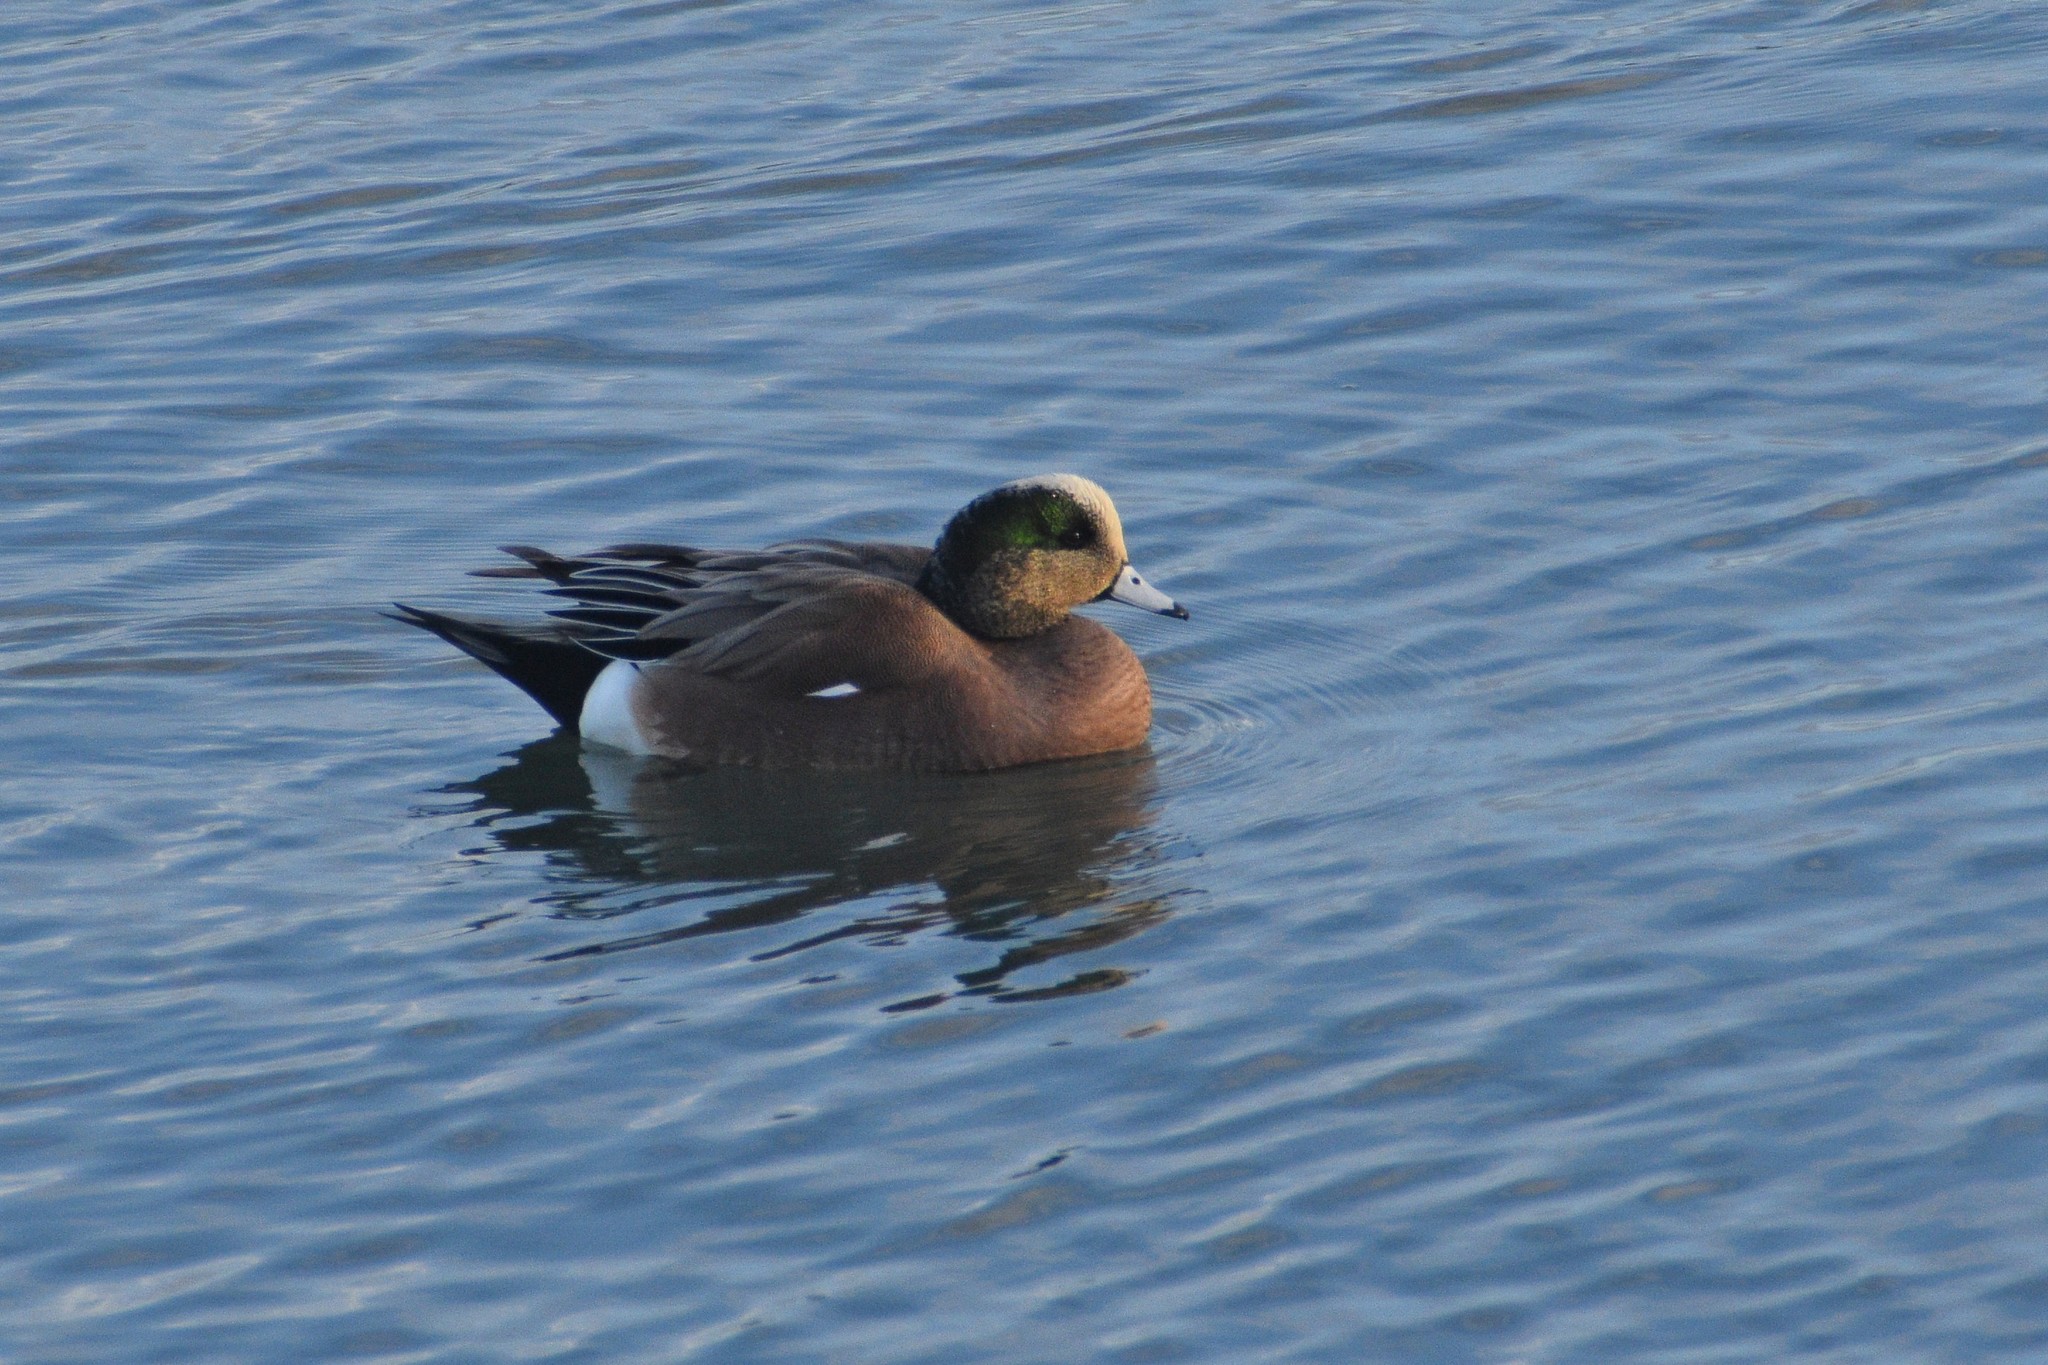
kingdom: Animalia
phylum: Chordata
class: Aves
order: Anseriformes
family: Anatidae
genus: Mareca
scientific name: Mareca americana
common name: American wigeon
